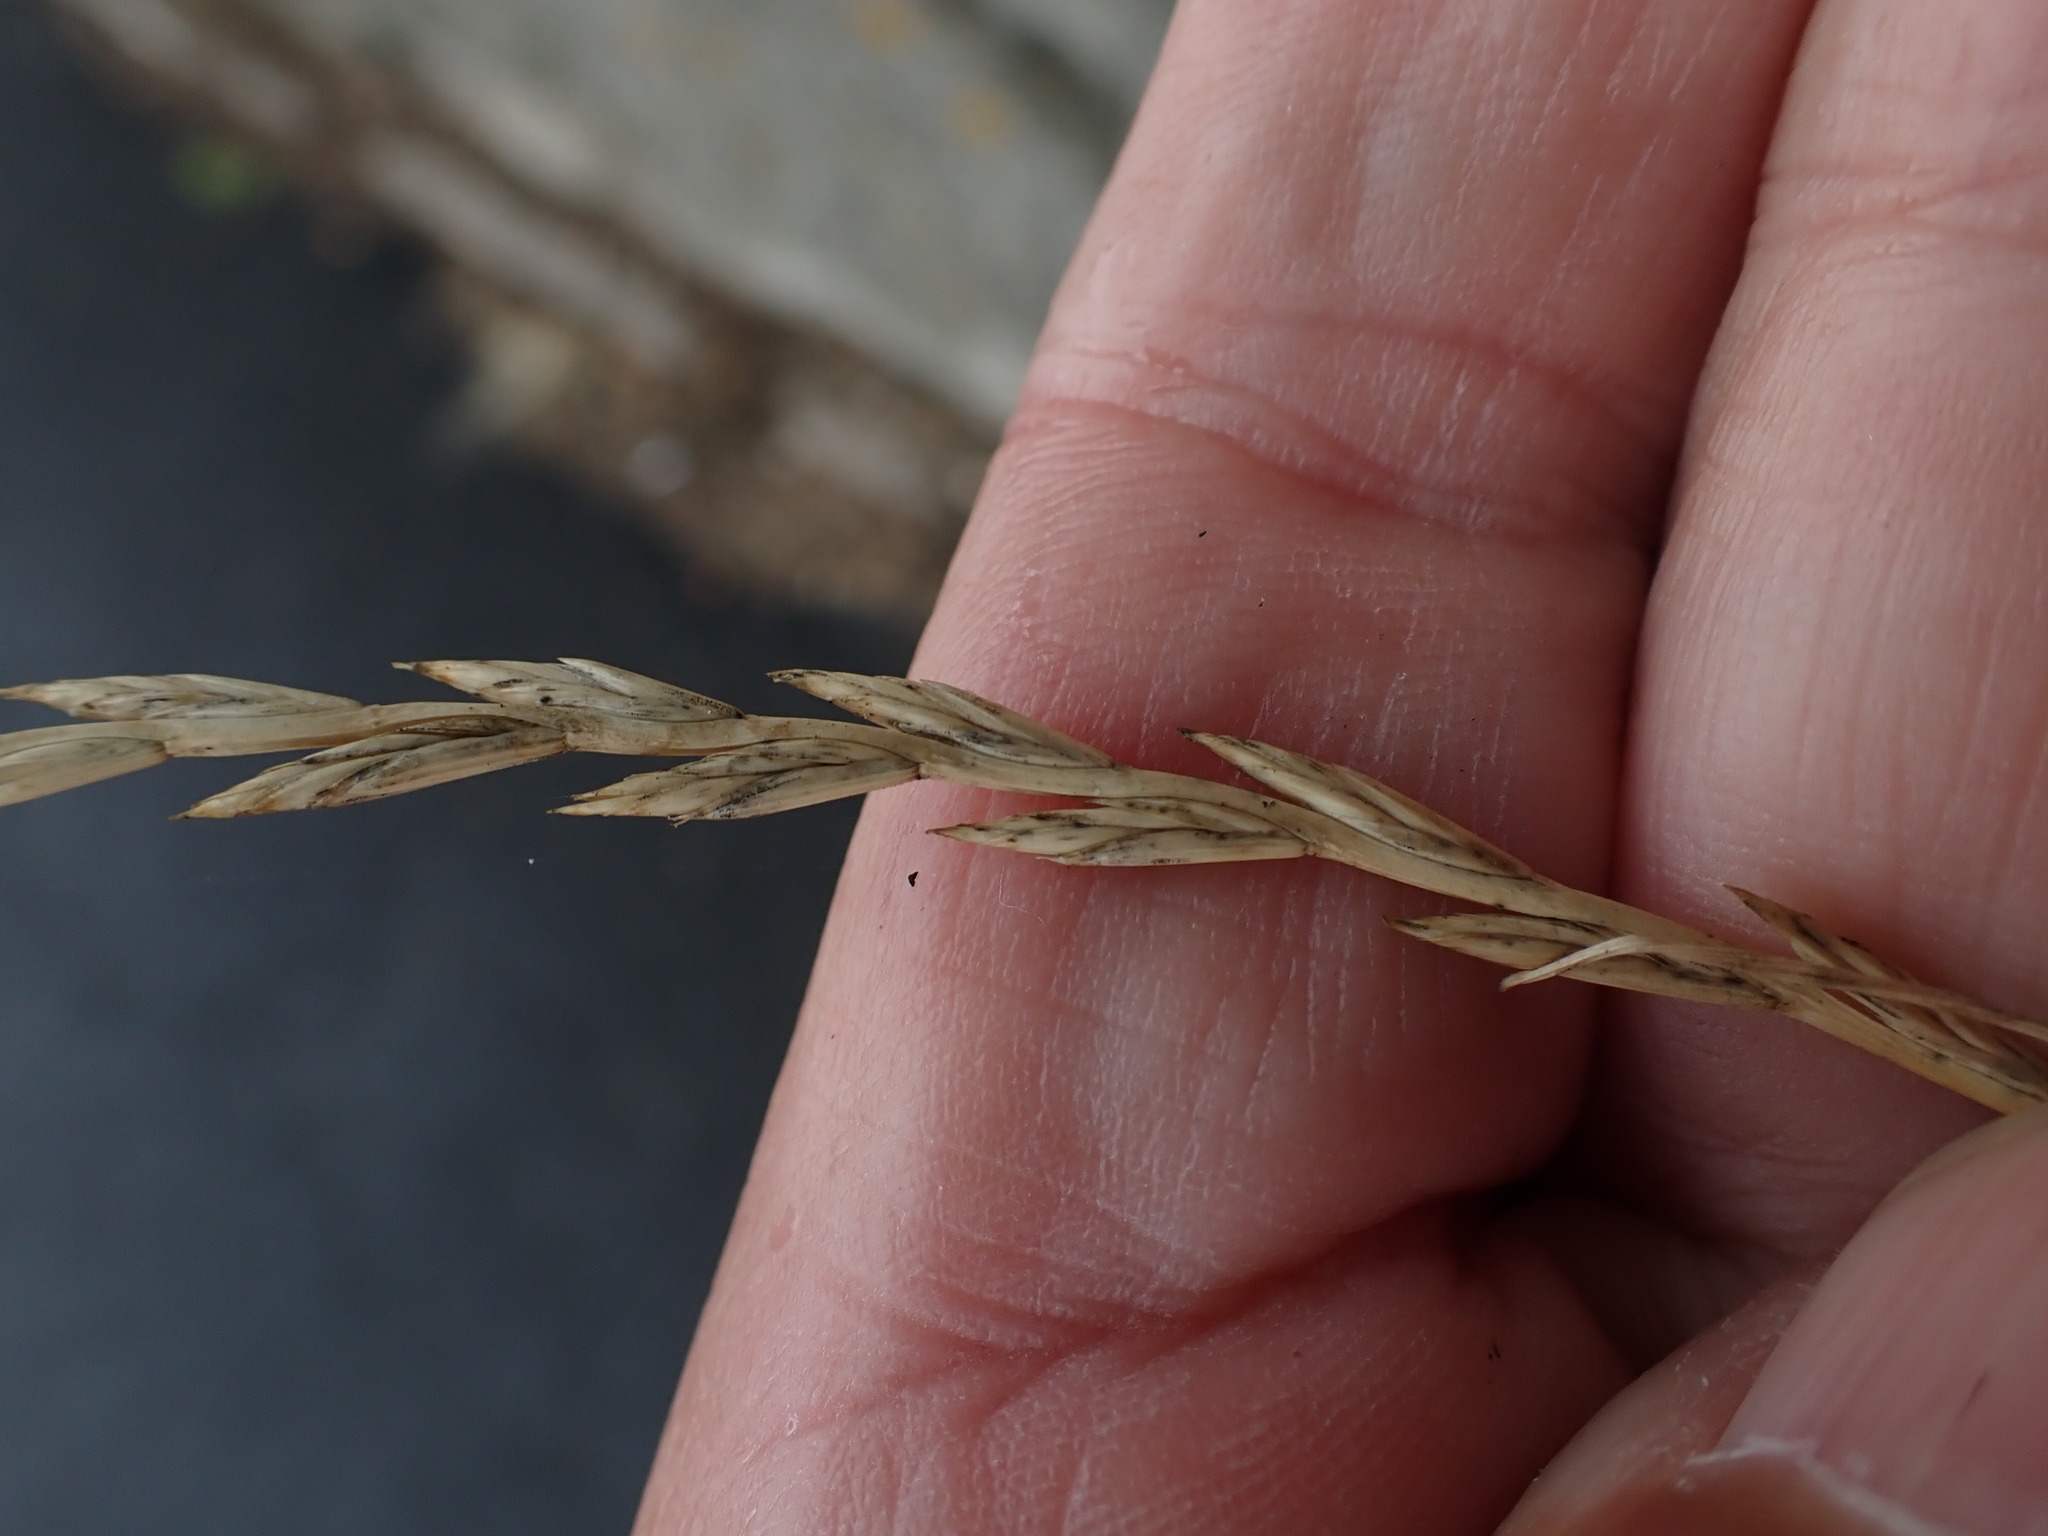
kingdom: Plantae
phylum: Tracheophyta
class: Liliopsida
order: Poales
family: Poaceae
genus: Lolium
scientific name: Lolium perenne
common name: Perennial ryegrass
